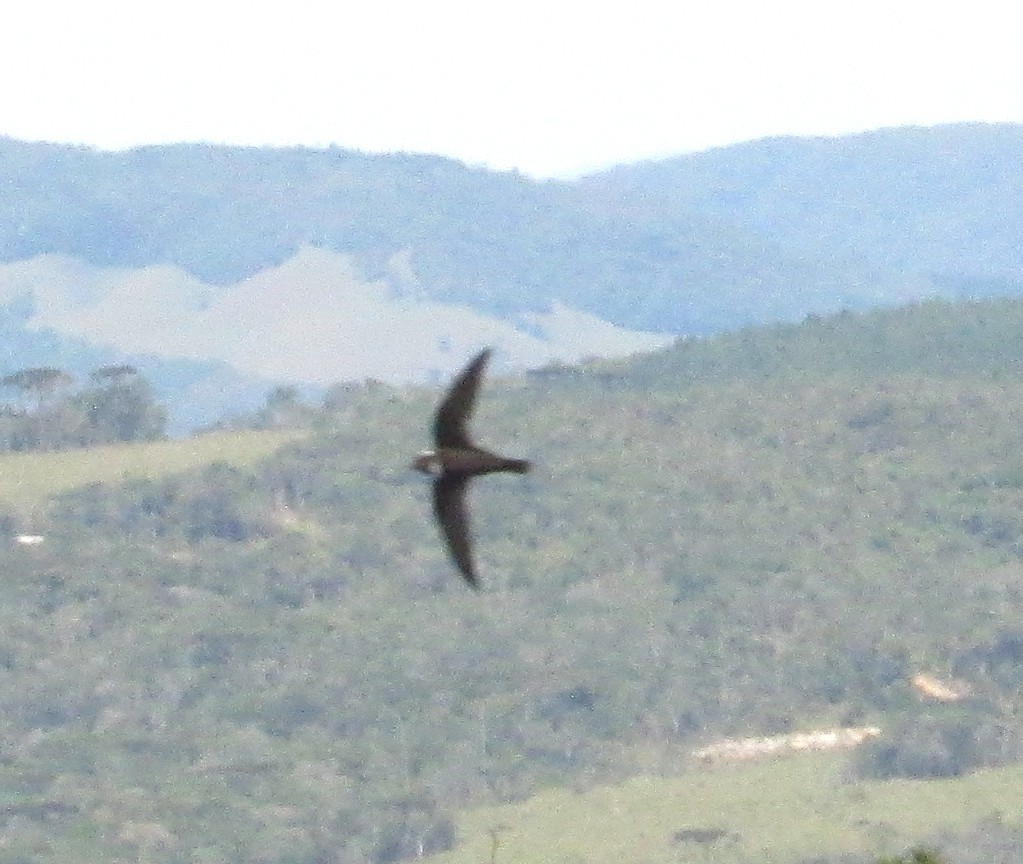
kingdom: Animalia
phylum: Chordata
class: Aves
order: Apodiformes
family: Apodidae
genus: Streptoprocne
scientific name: Streptoprocne biscutata
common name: Biscutate swift
